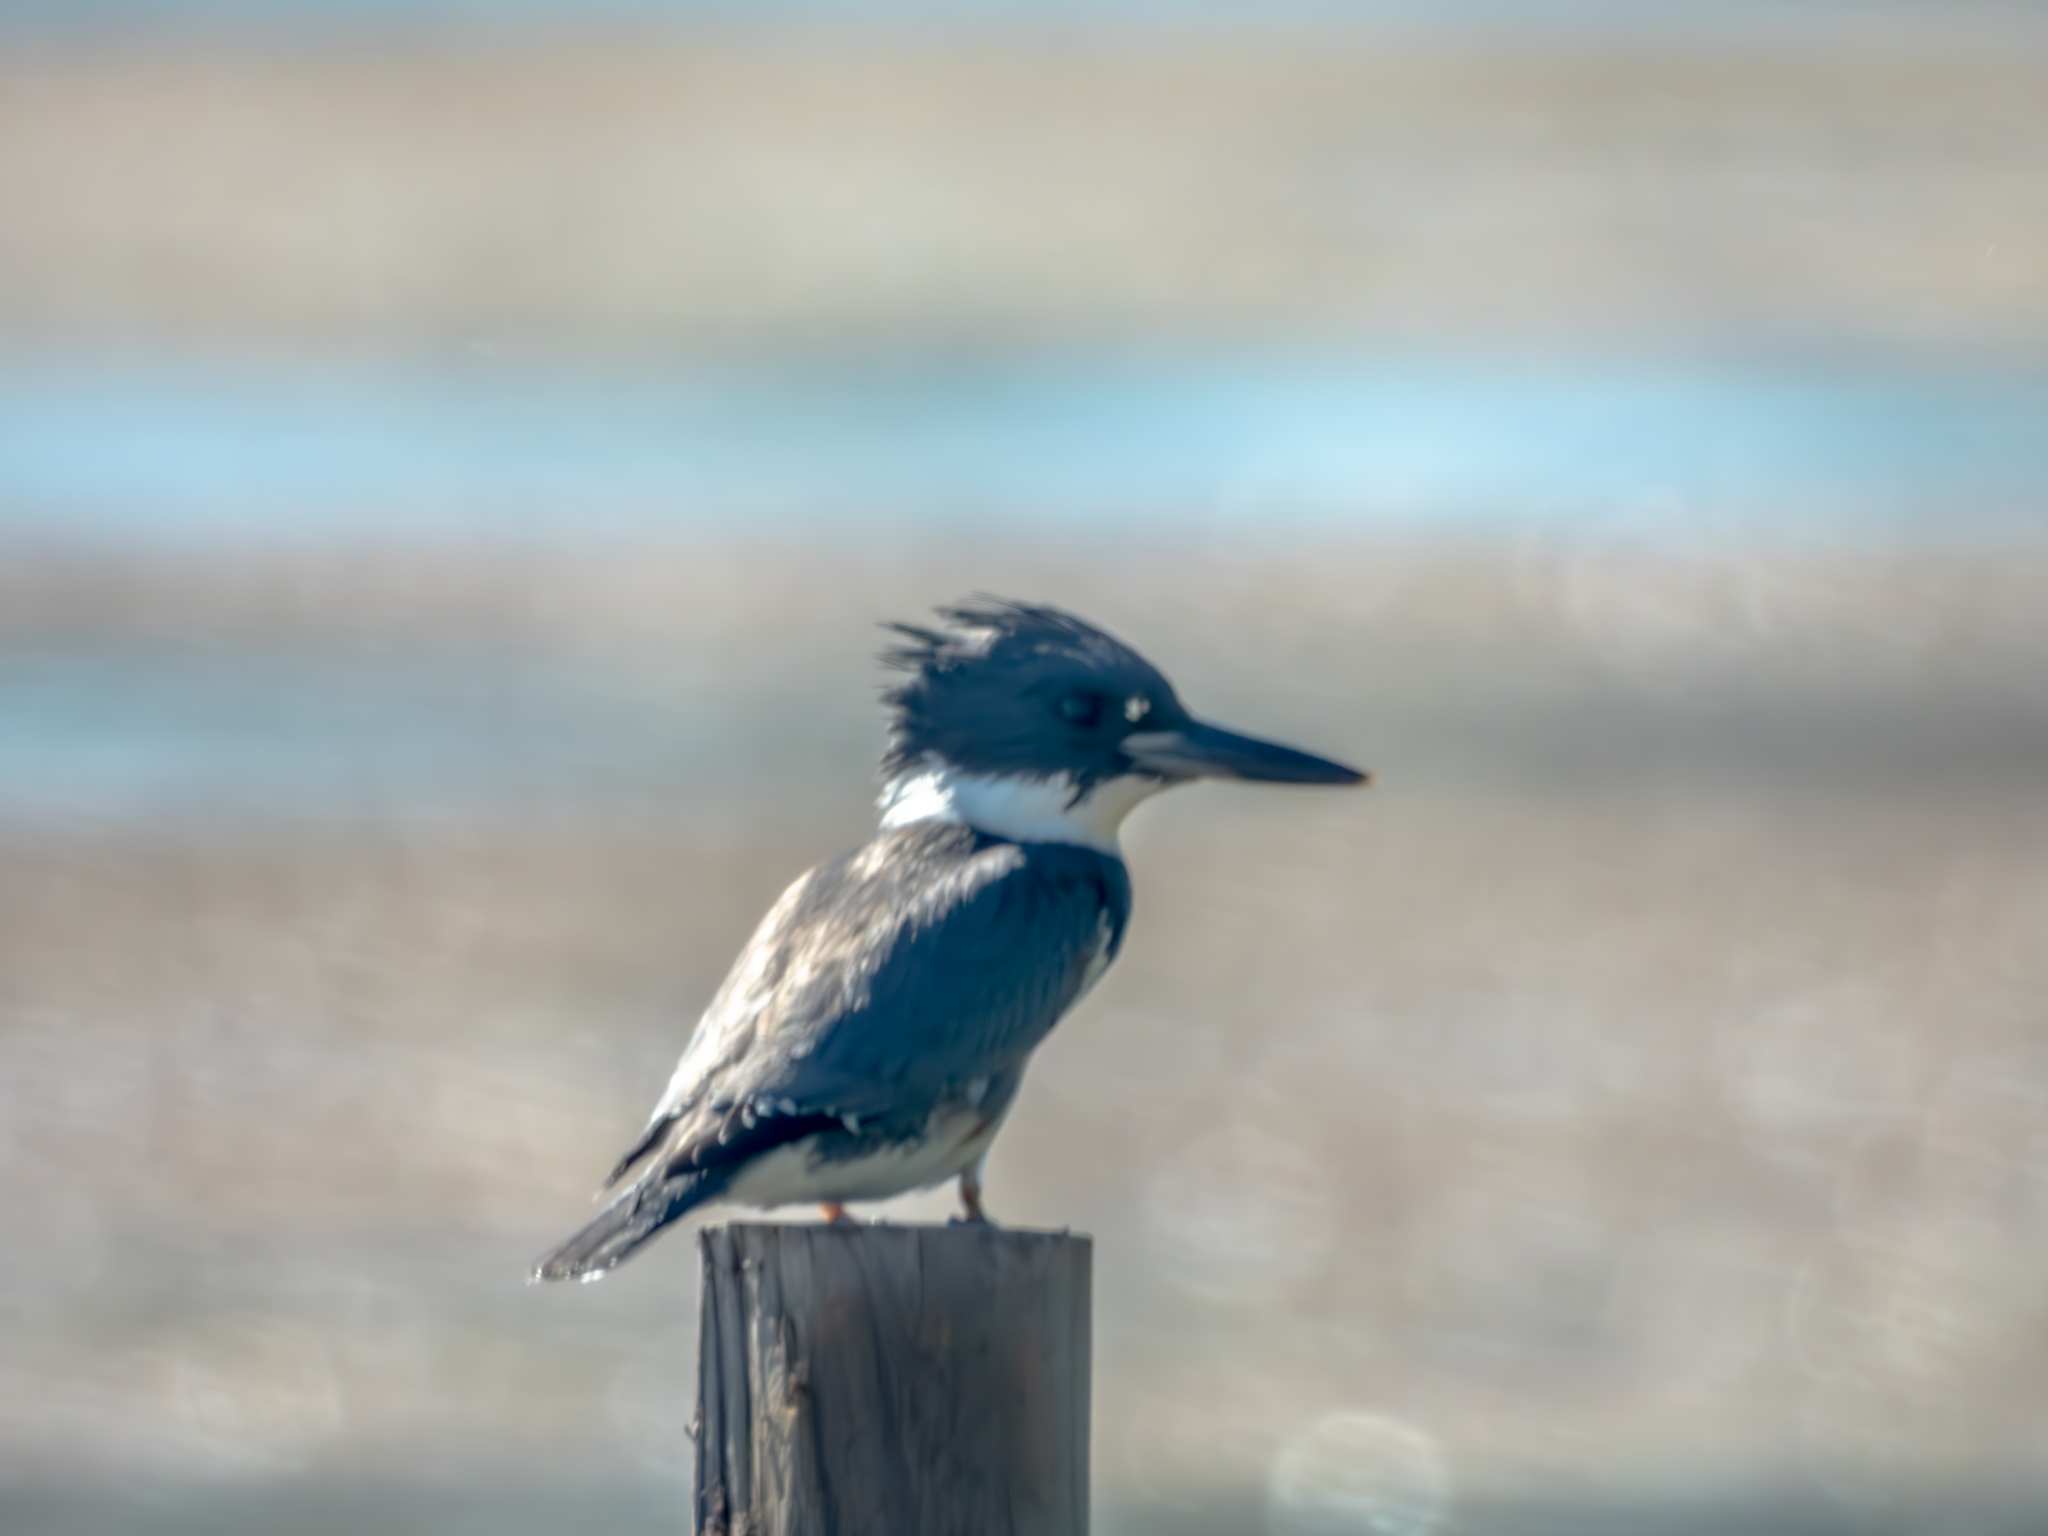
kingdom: Animalia
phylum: Chordata
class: Aves
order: Coraciiformes
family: Alcedinidae
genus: Megaceryle
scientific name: Megaceryle alcyon
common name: Belted kingfisher
